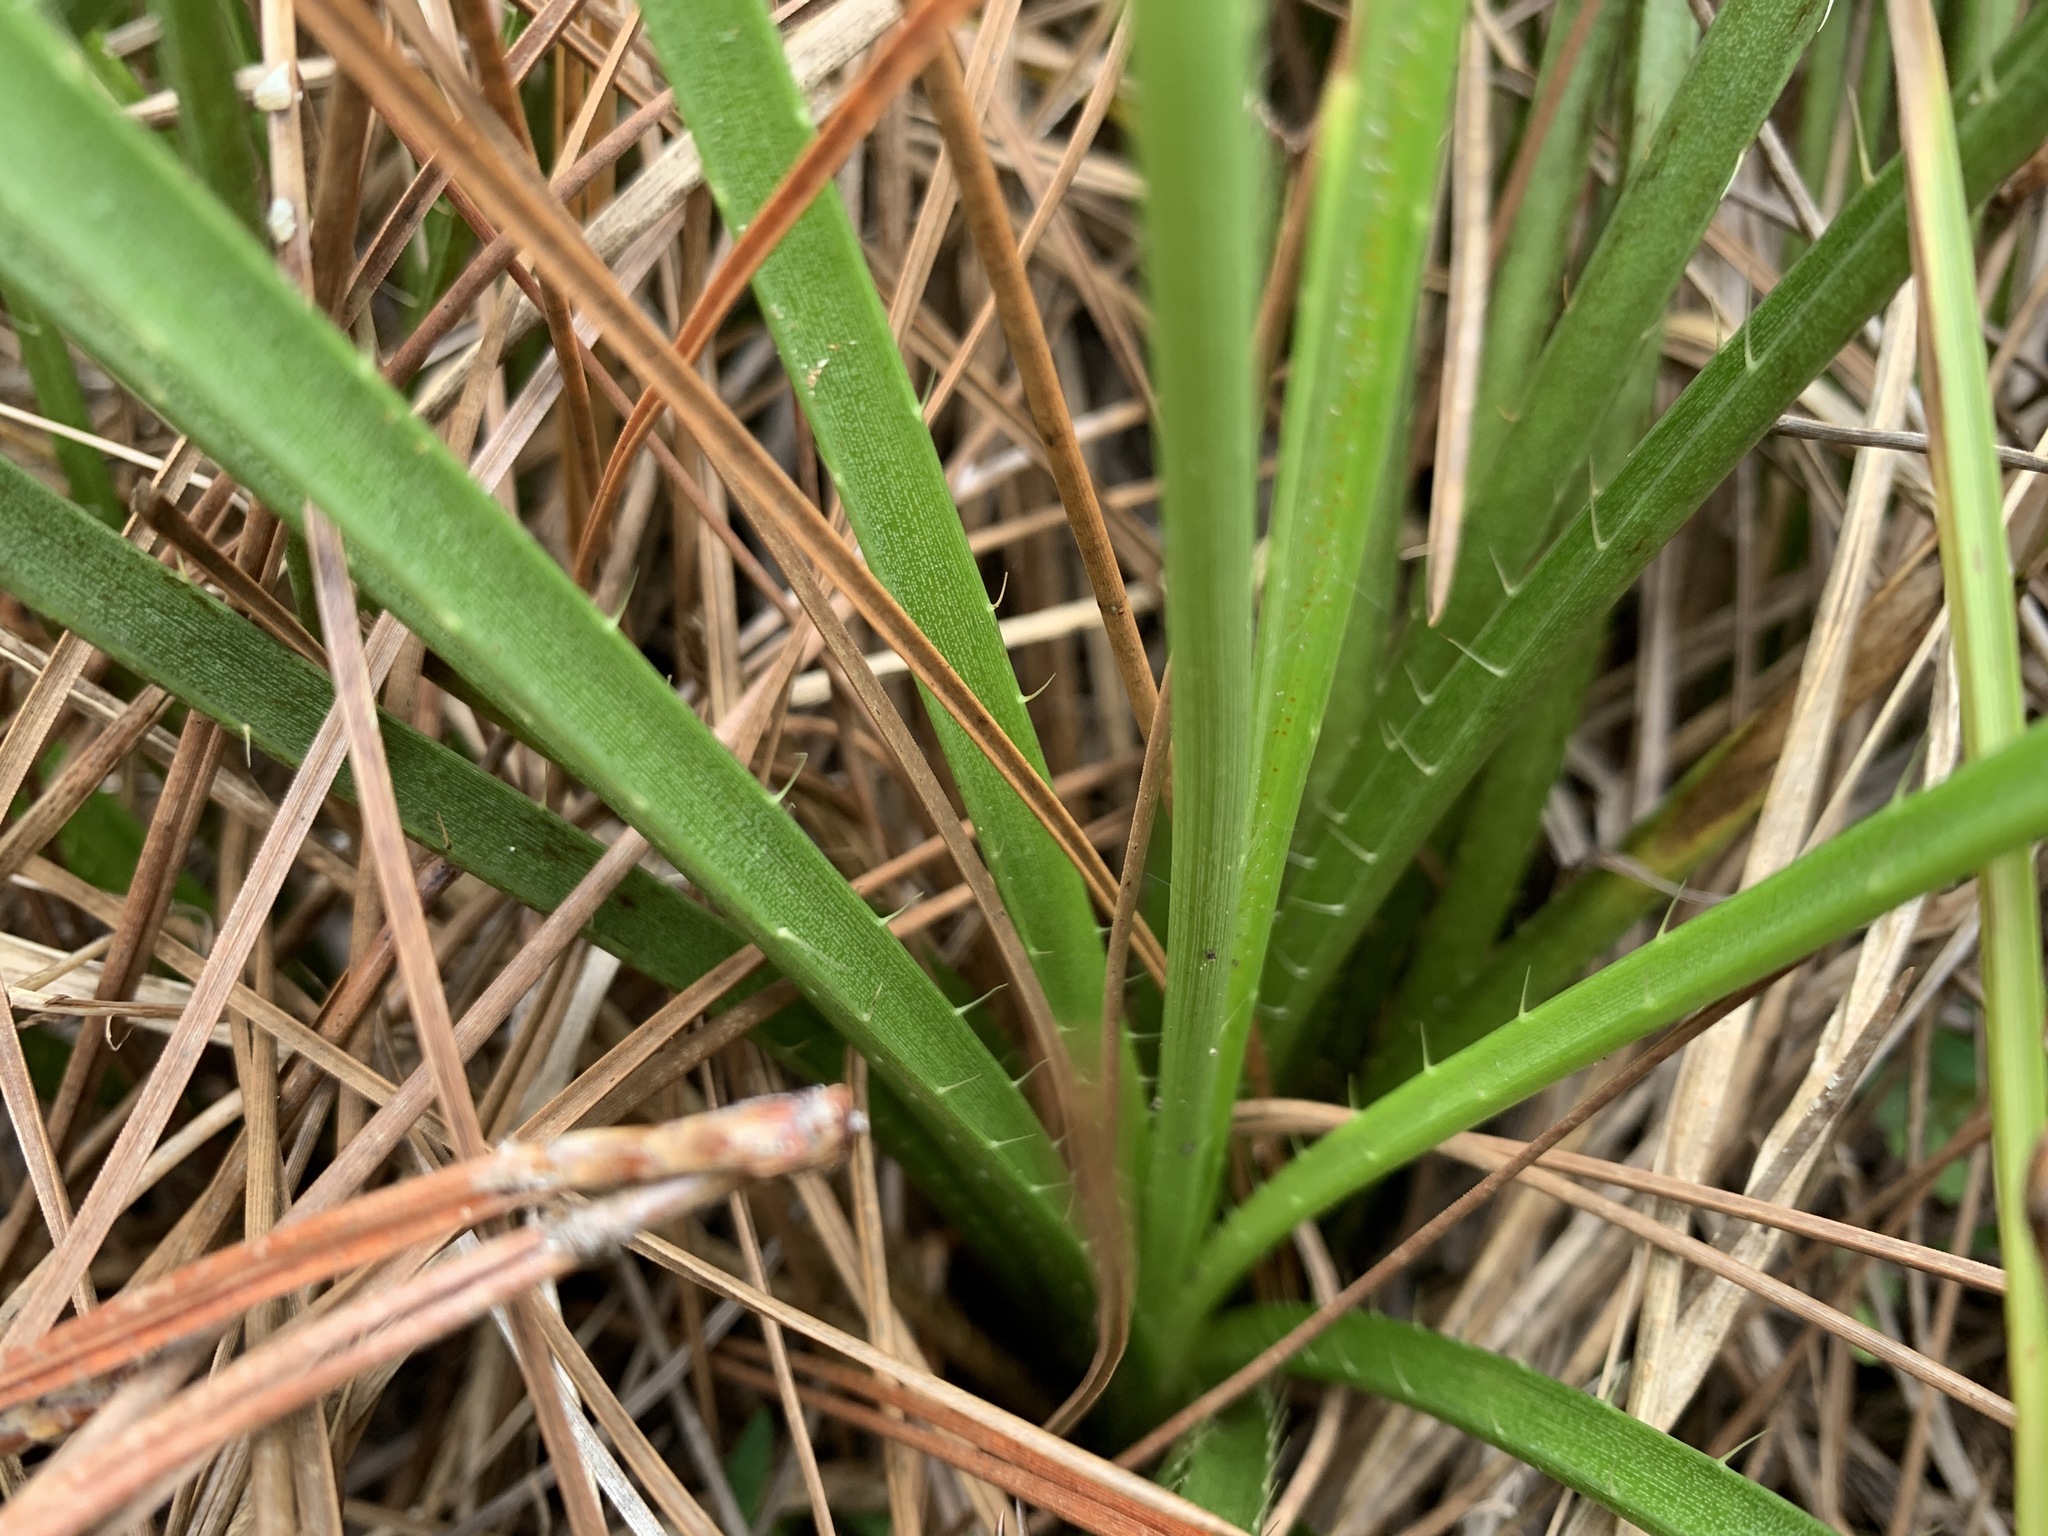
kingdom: Plantae
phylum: Tracheophyta
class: Magnoliopsida
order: Apiales
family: Apiaceae
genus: Eryngium
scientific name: Eryngium yuccifolium
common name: Button eryngo
